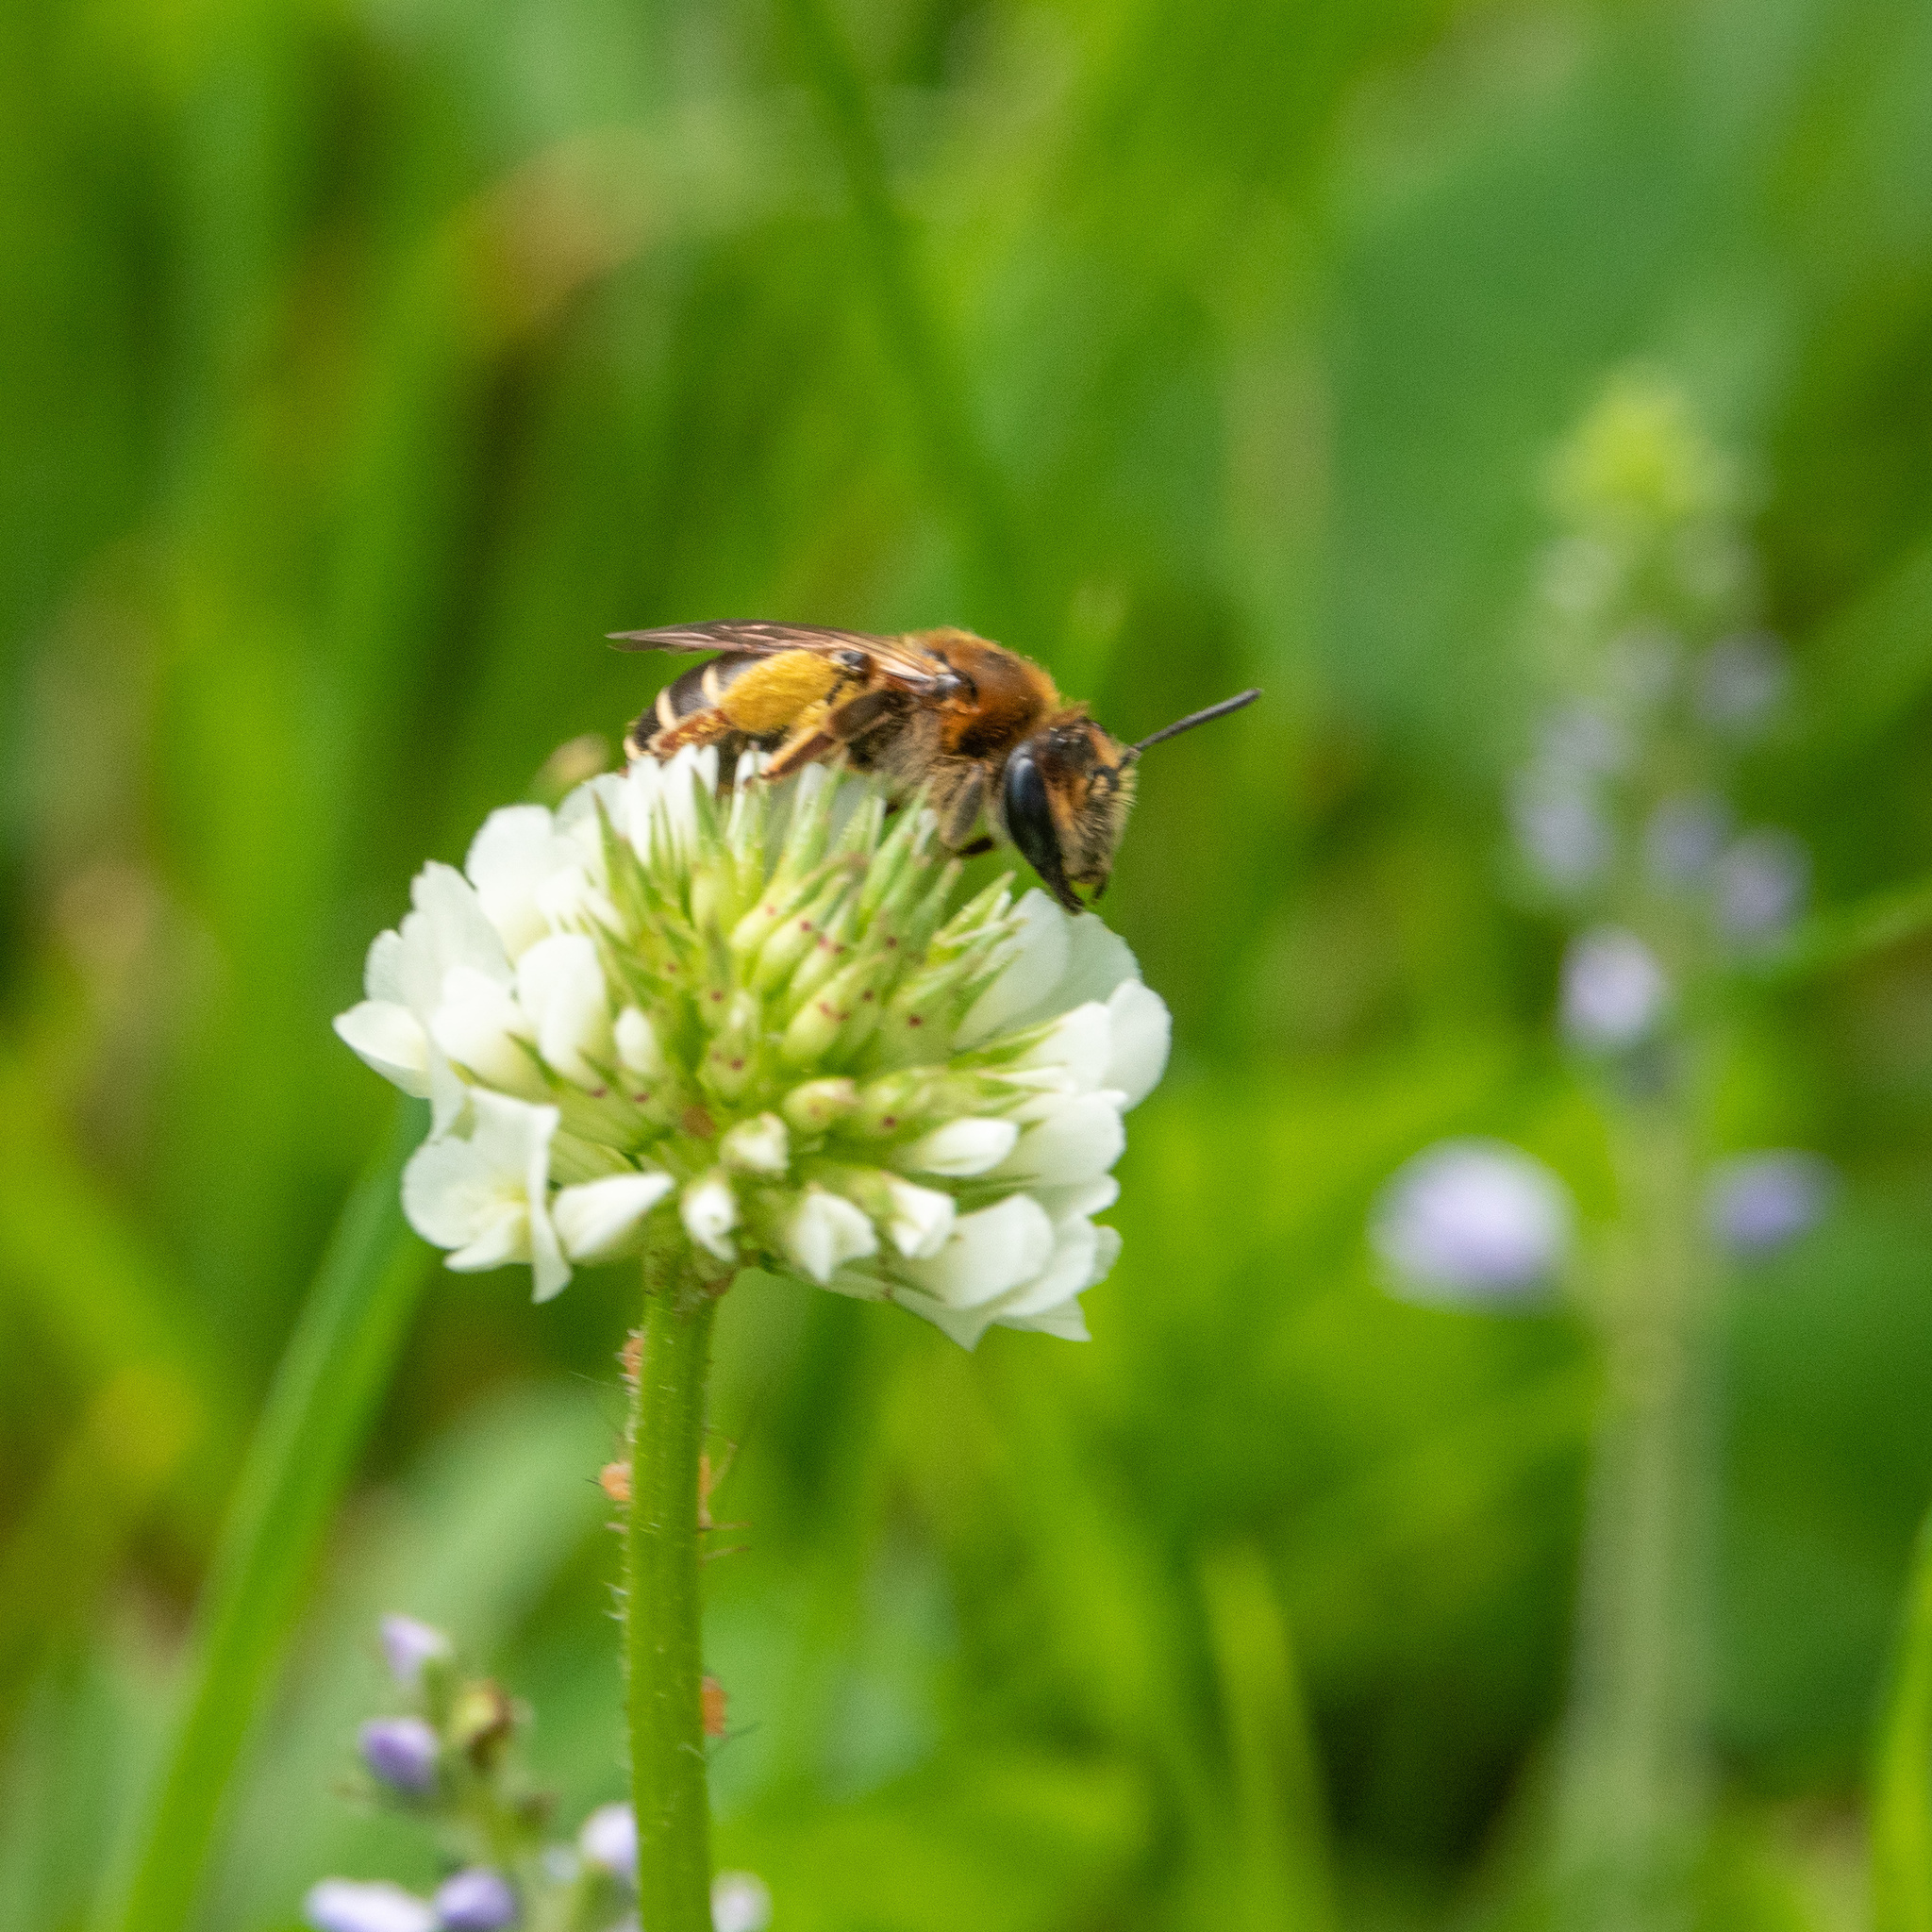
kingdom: Animalia
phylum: Arthropoda
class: Insecta
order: Hymenoptera
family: Andrenidae
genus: Andrena
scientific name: Andrena wilkella
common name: Wilke's mining bee
